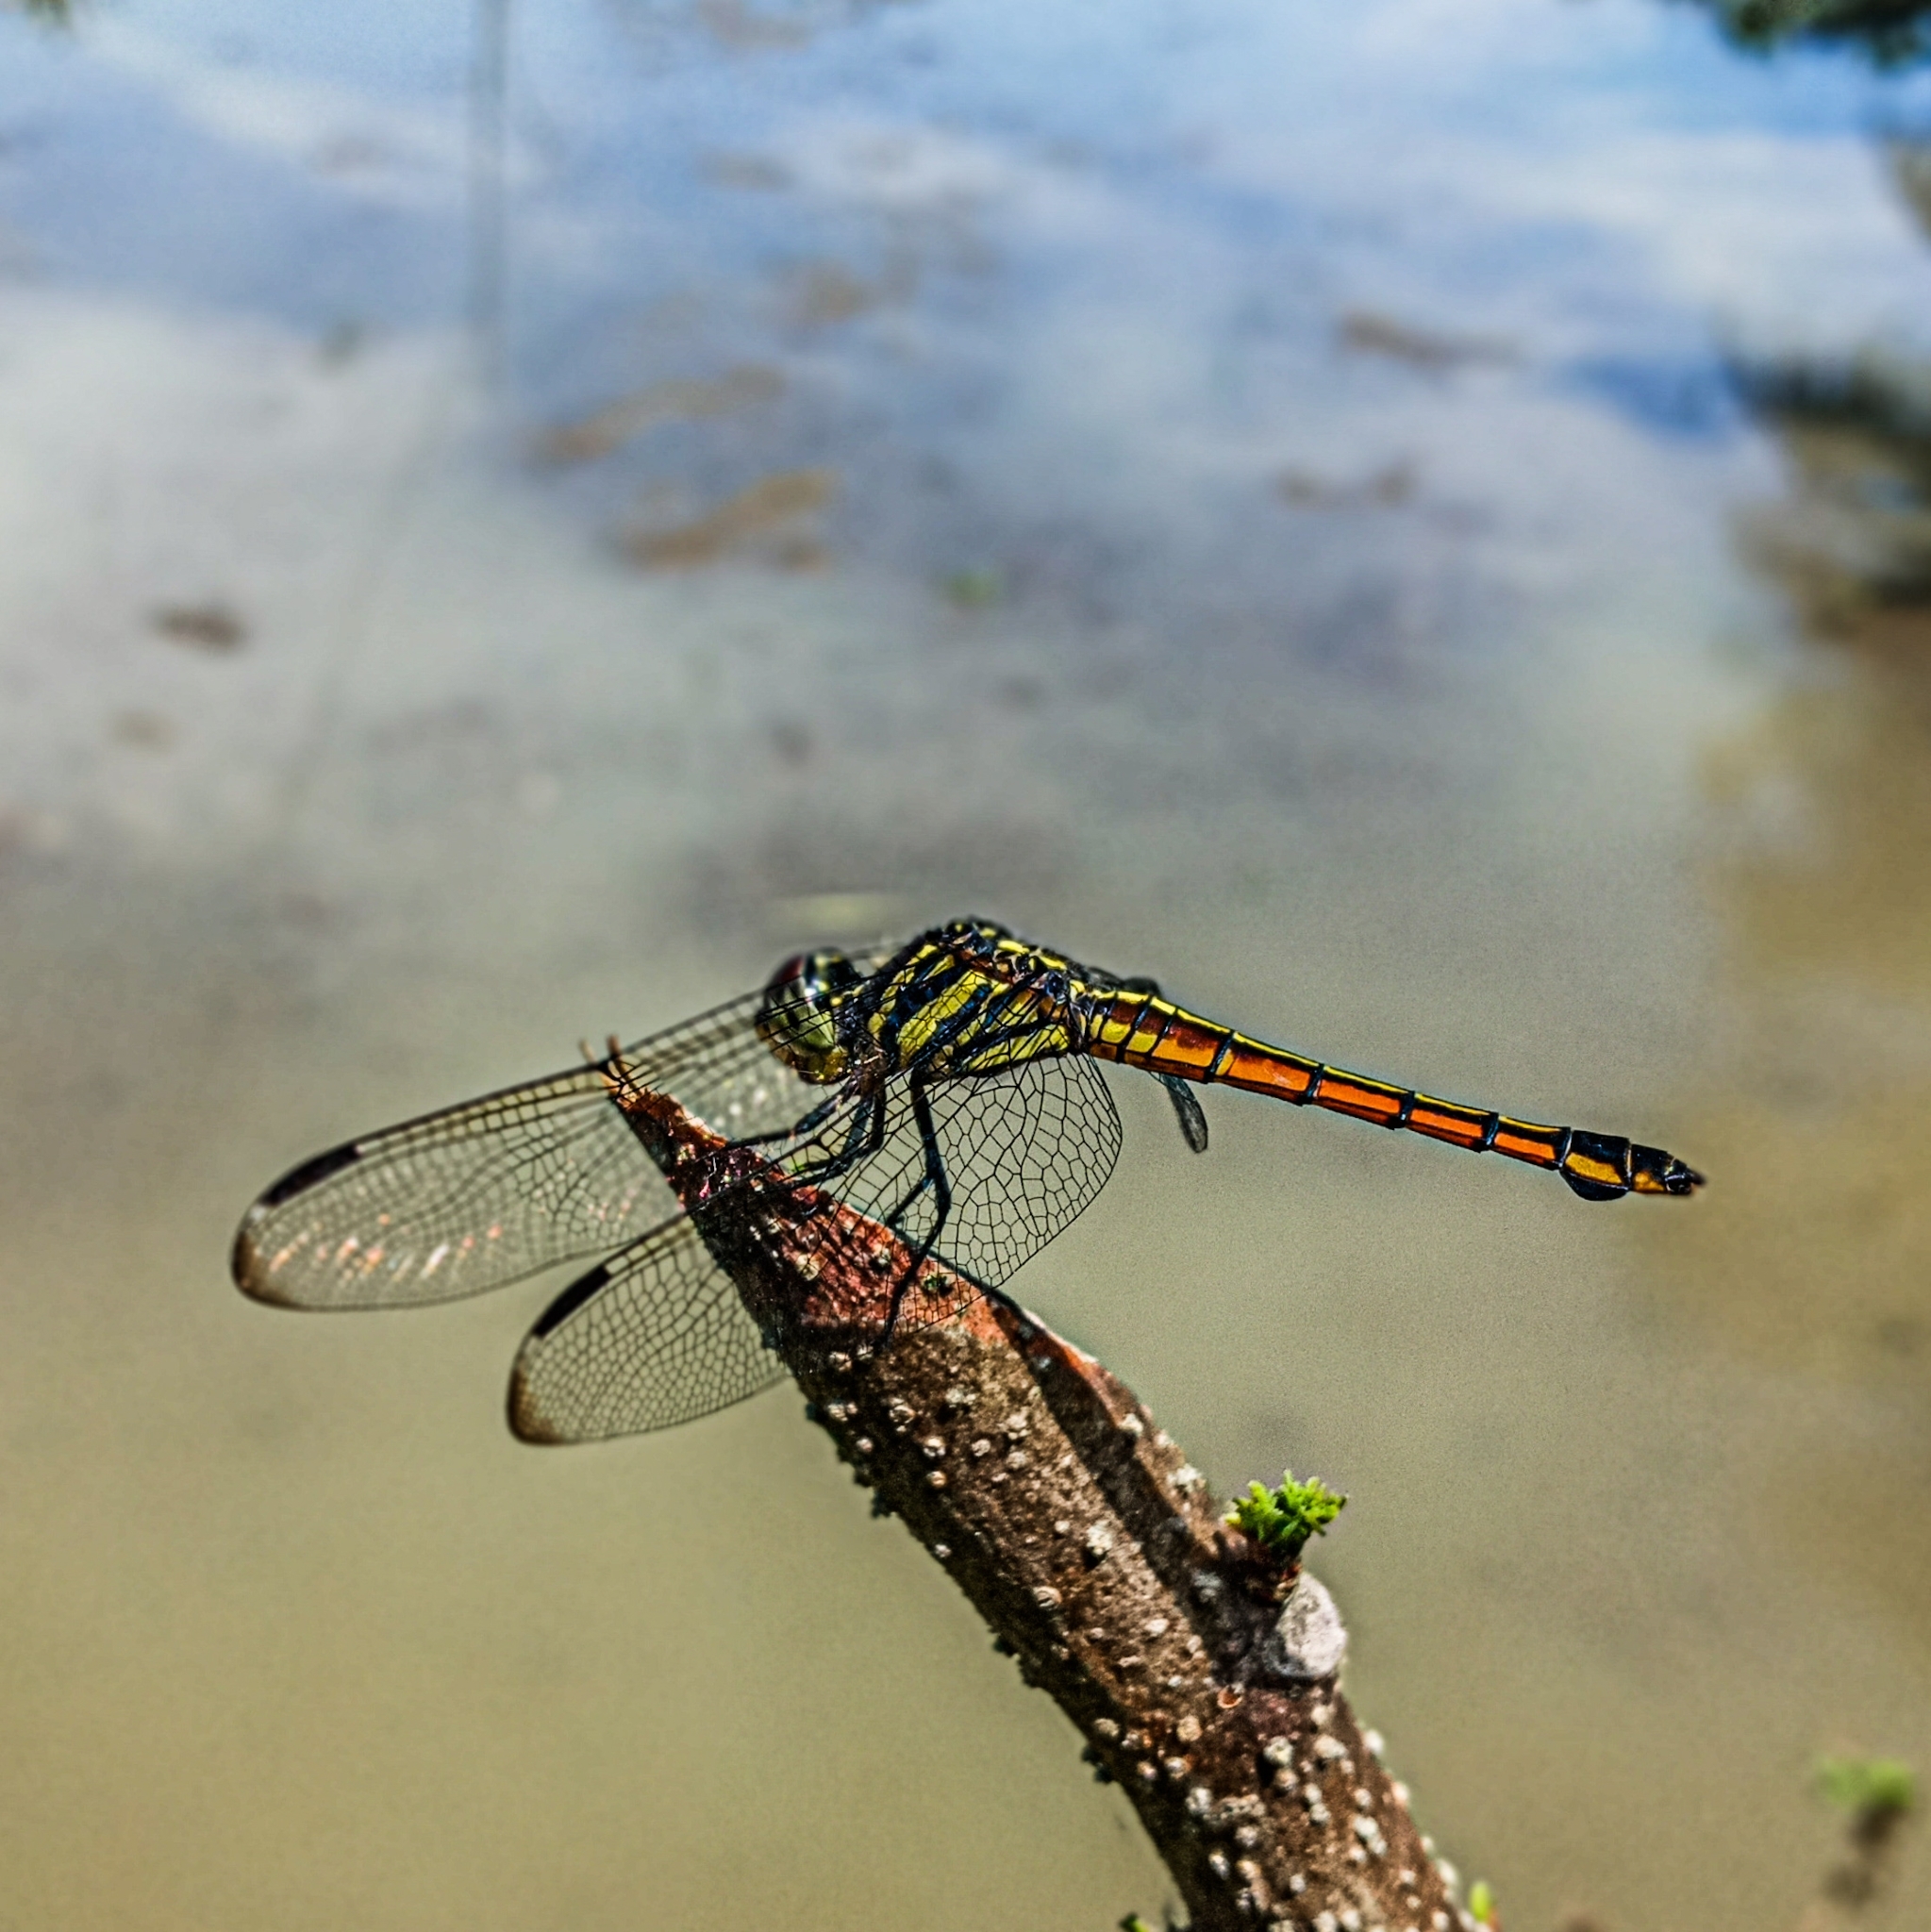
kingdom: Animalia
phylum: Arthropoda
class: Insecta
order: Odonata
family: Libellulidae
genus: Potamarcha
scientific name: Potamarcha congener
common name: Blue chaser
